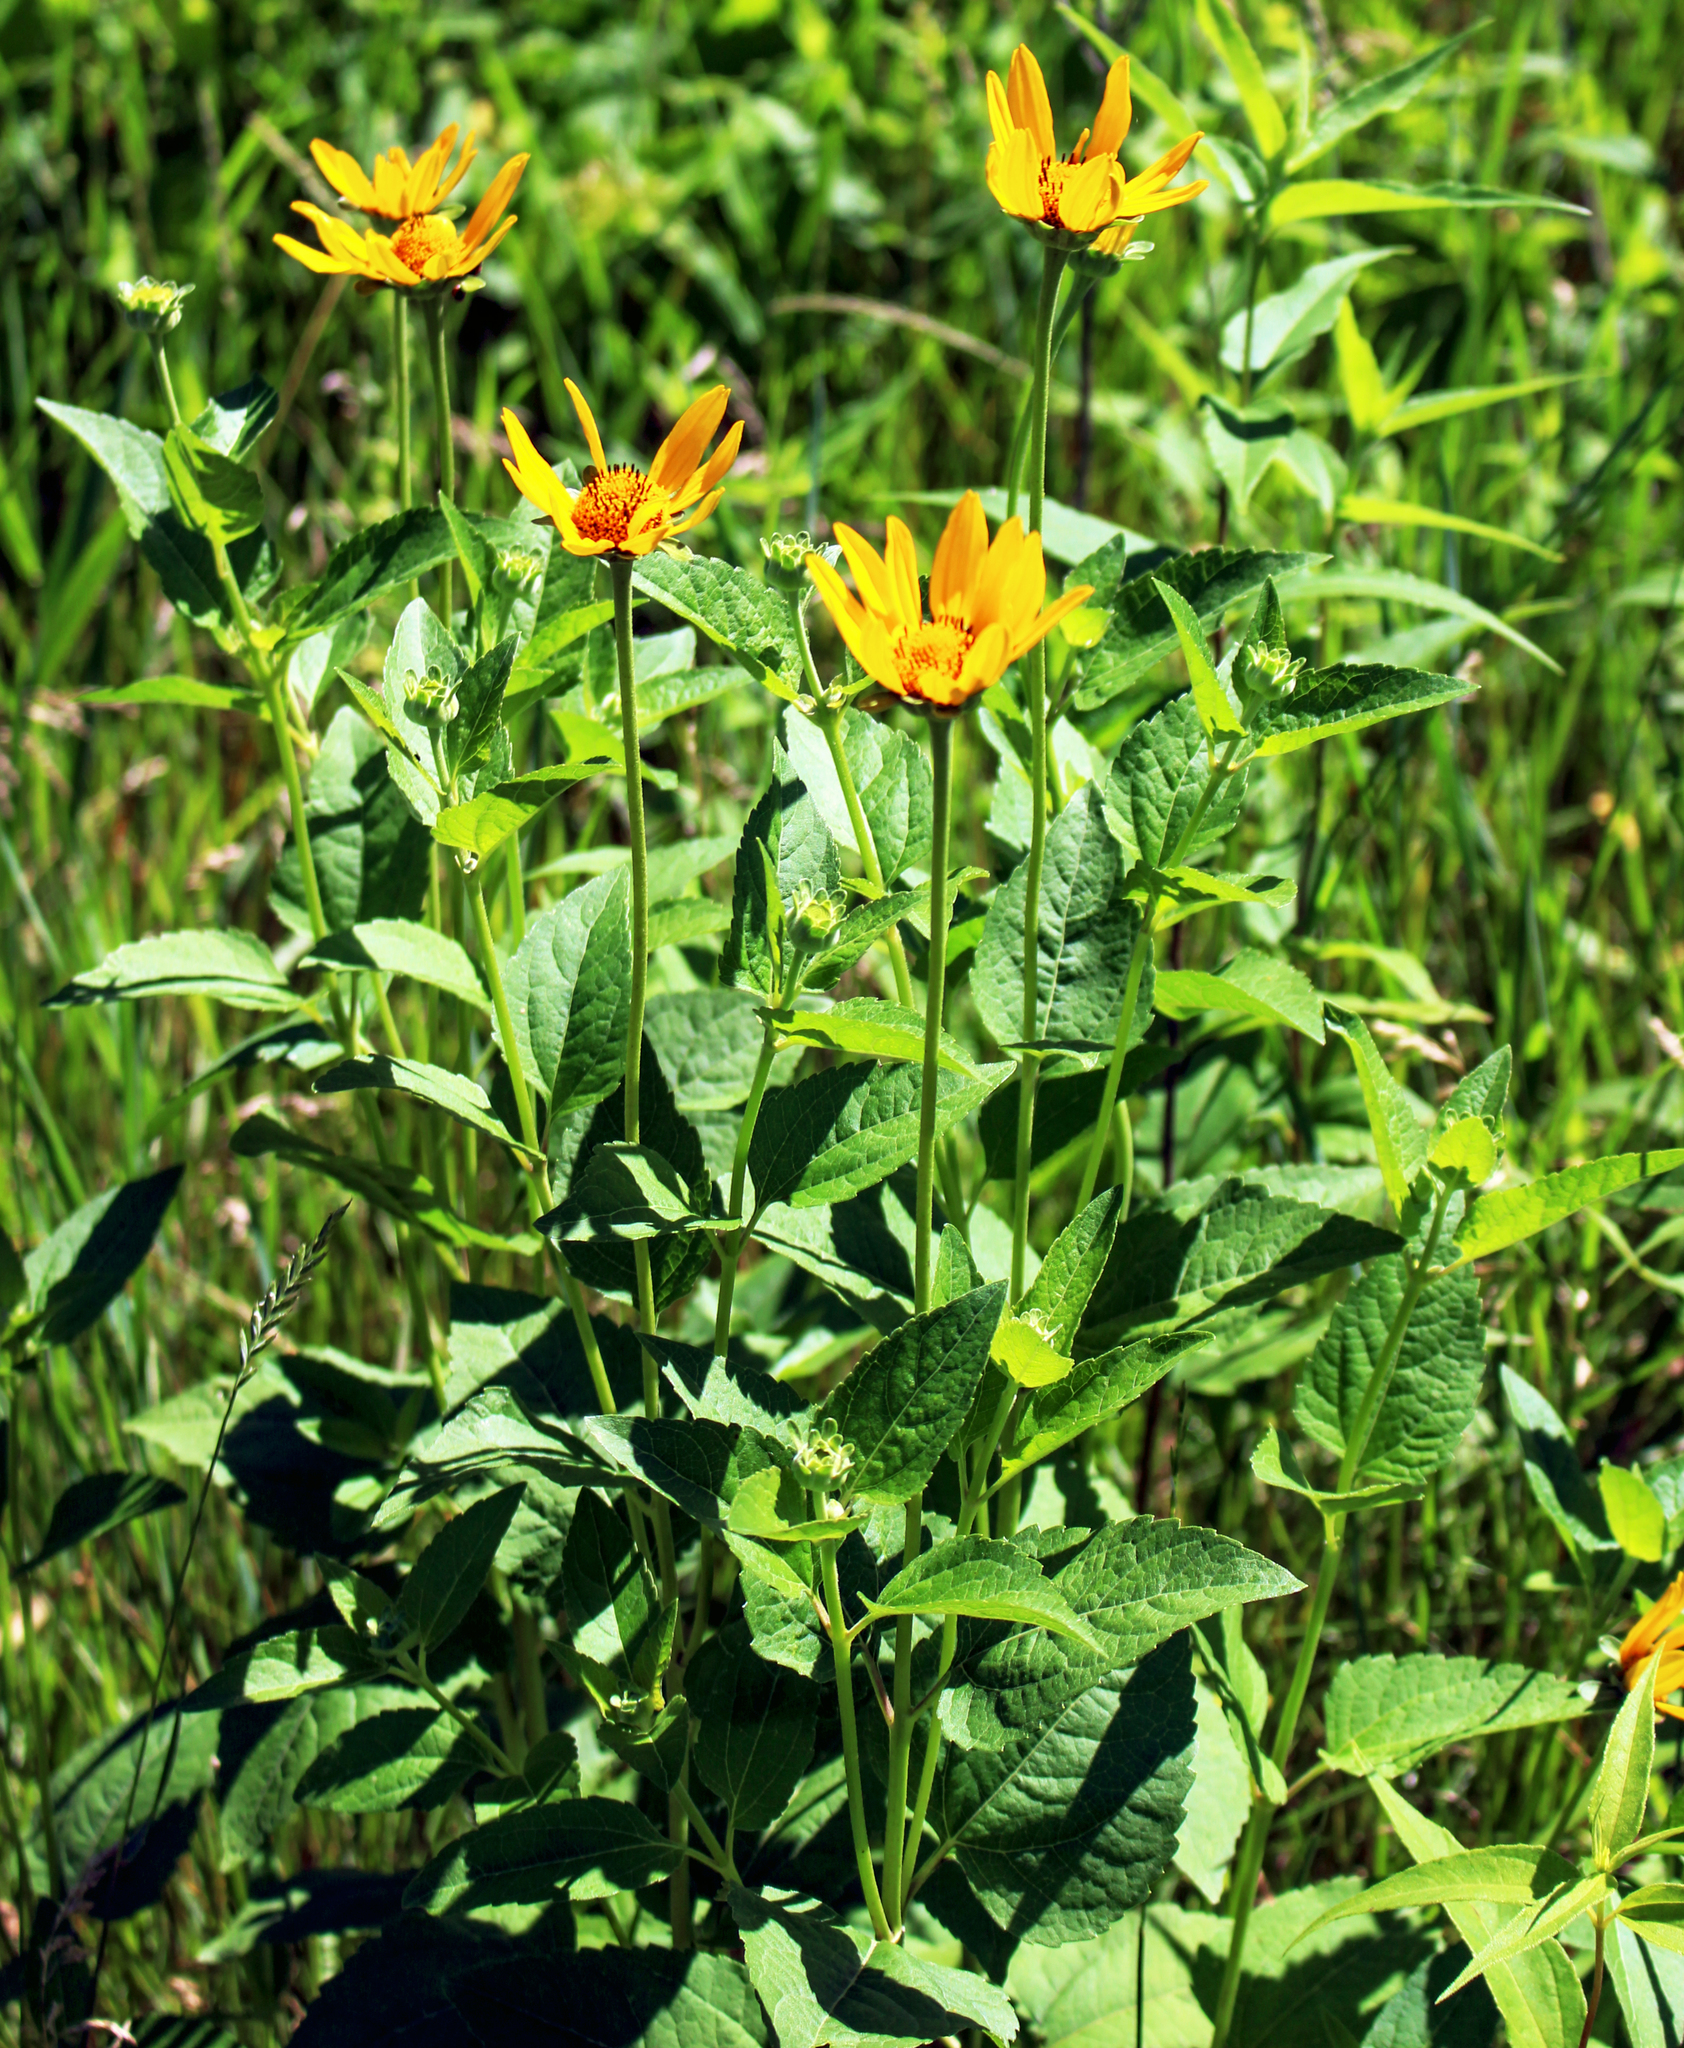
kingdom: Plantae
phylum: Tracheophyta
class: Magnoliopsida
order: Asterales
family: Asteraceae
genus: Heliopsis
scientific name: Heliopsis helianthoides
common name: False sunflower
